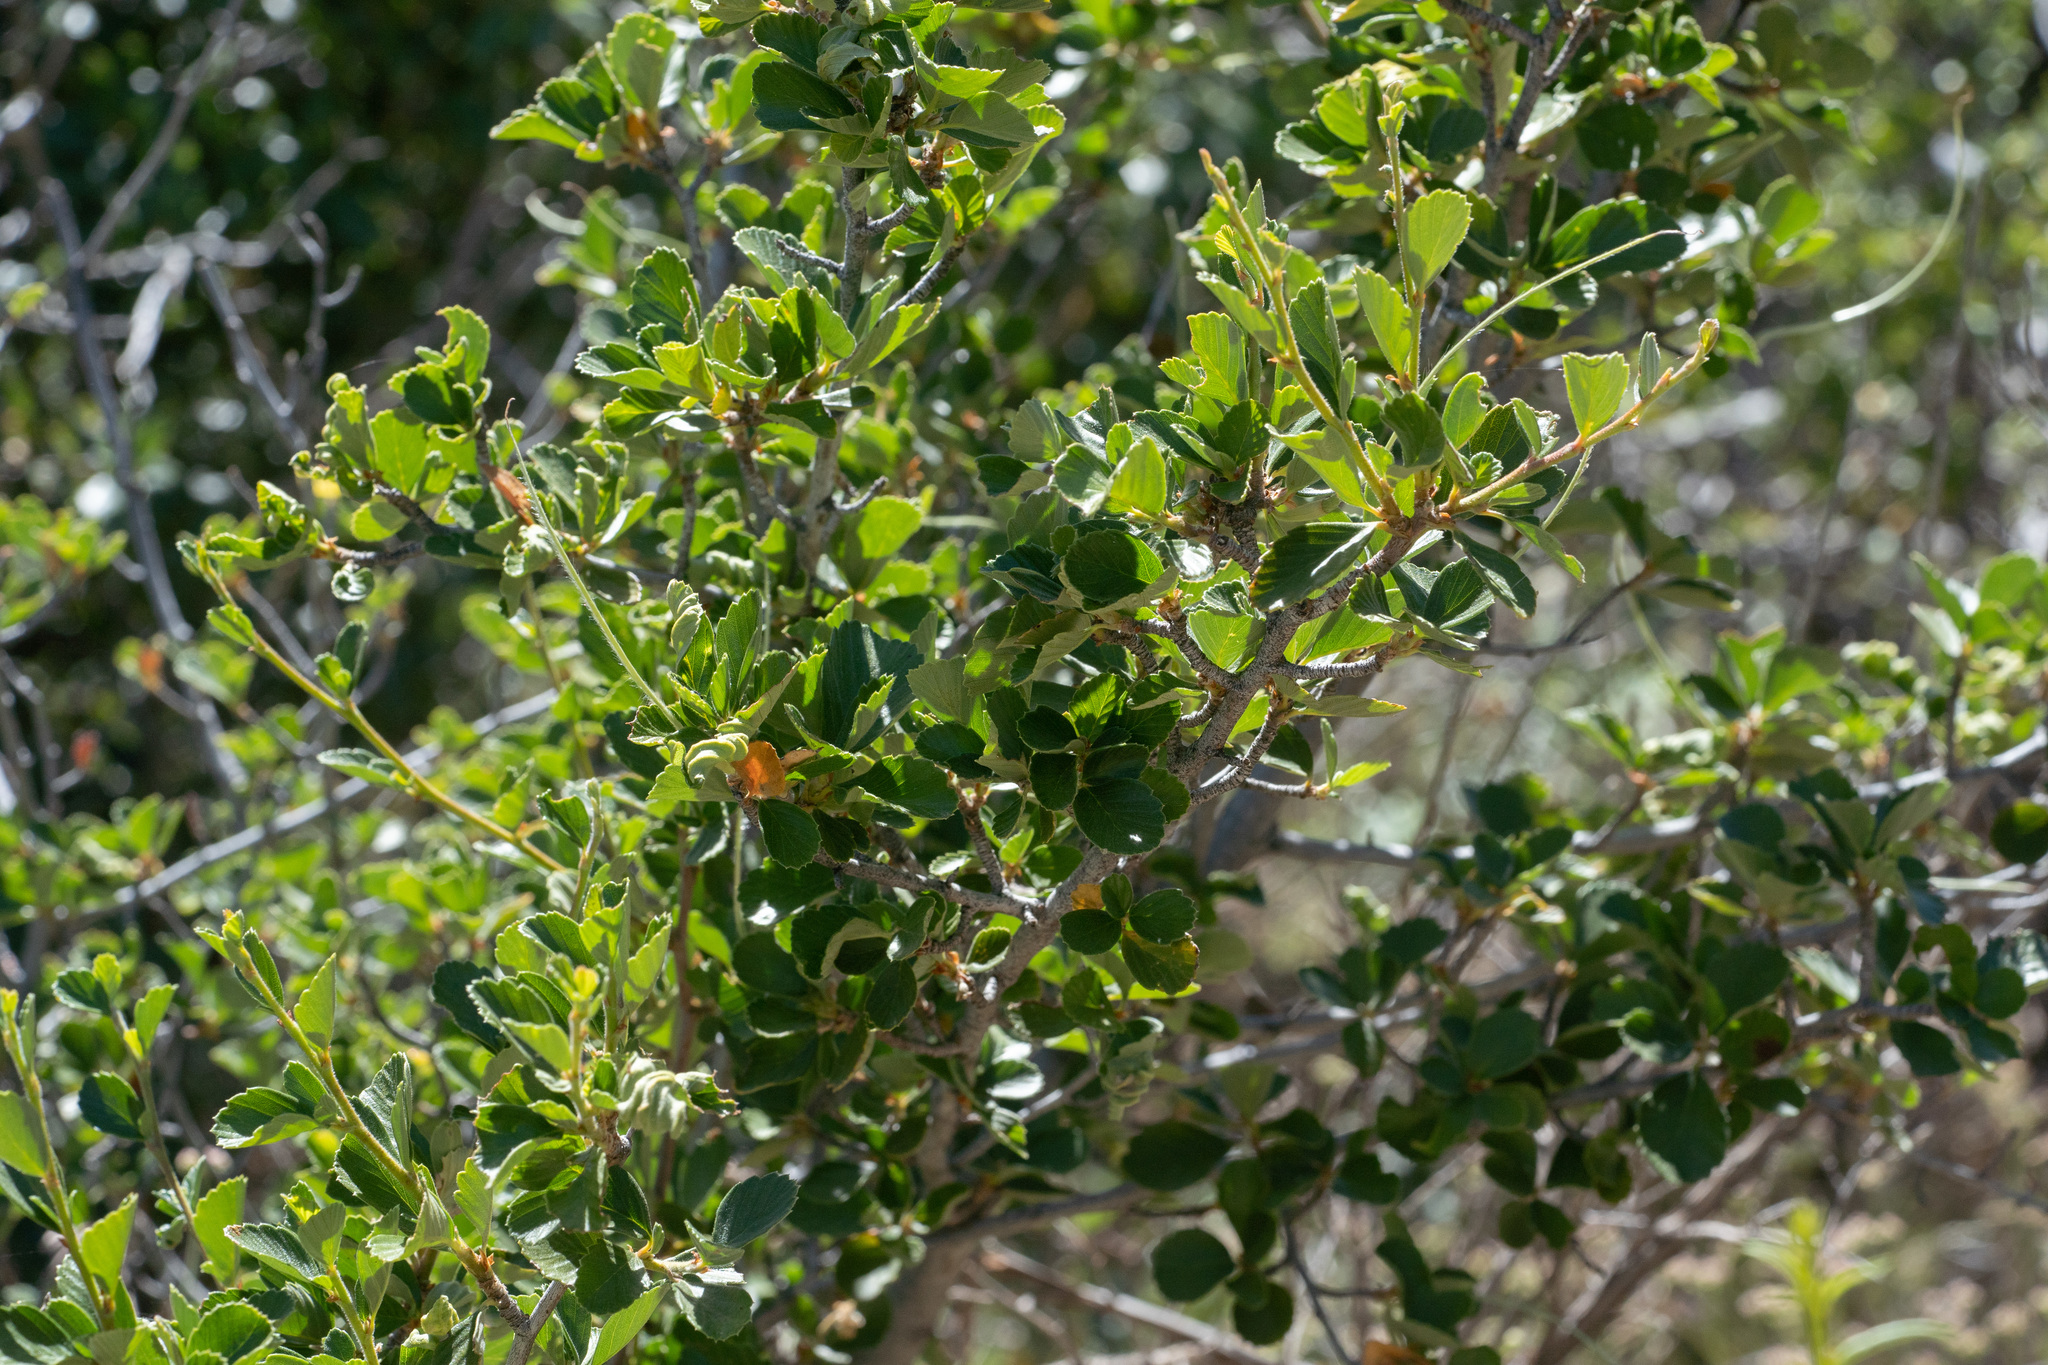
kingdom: Plantae
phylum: Tracheophyta
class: Magnoliopsida
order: Rosales
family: Rosaceae
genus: Cercocarpus
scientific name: Cercocarpus betuloides
